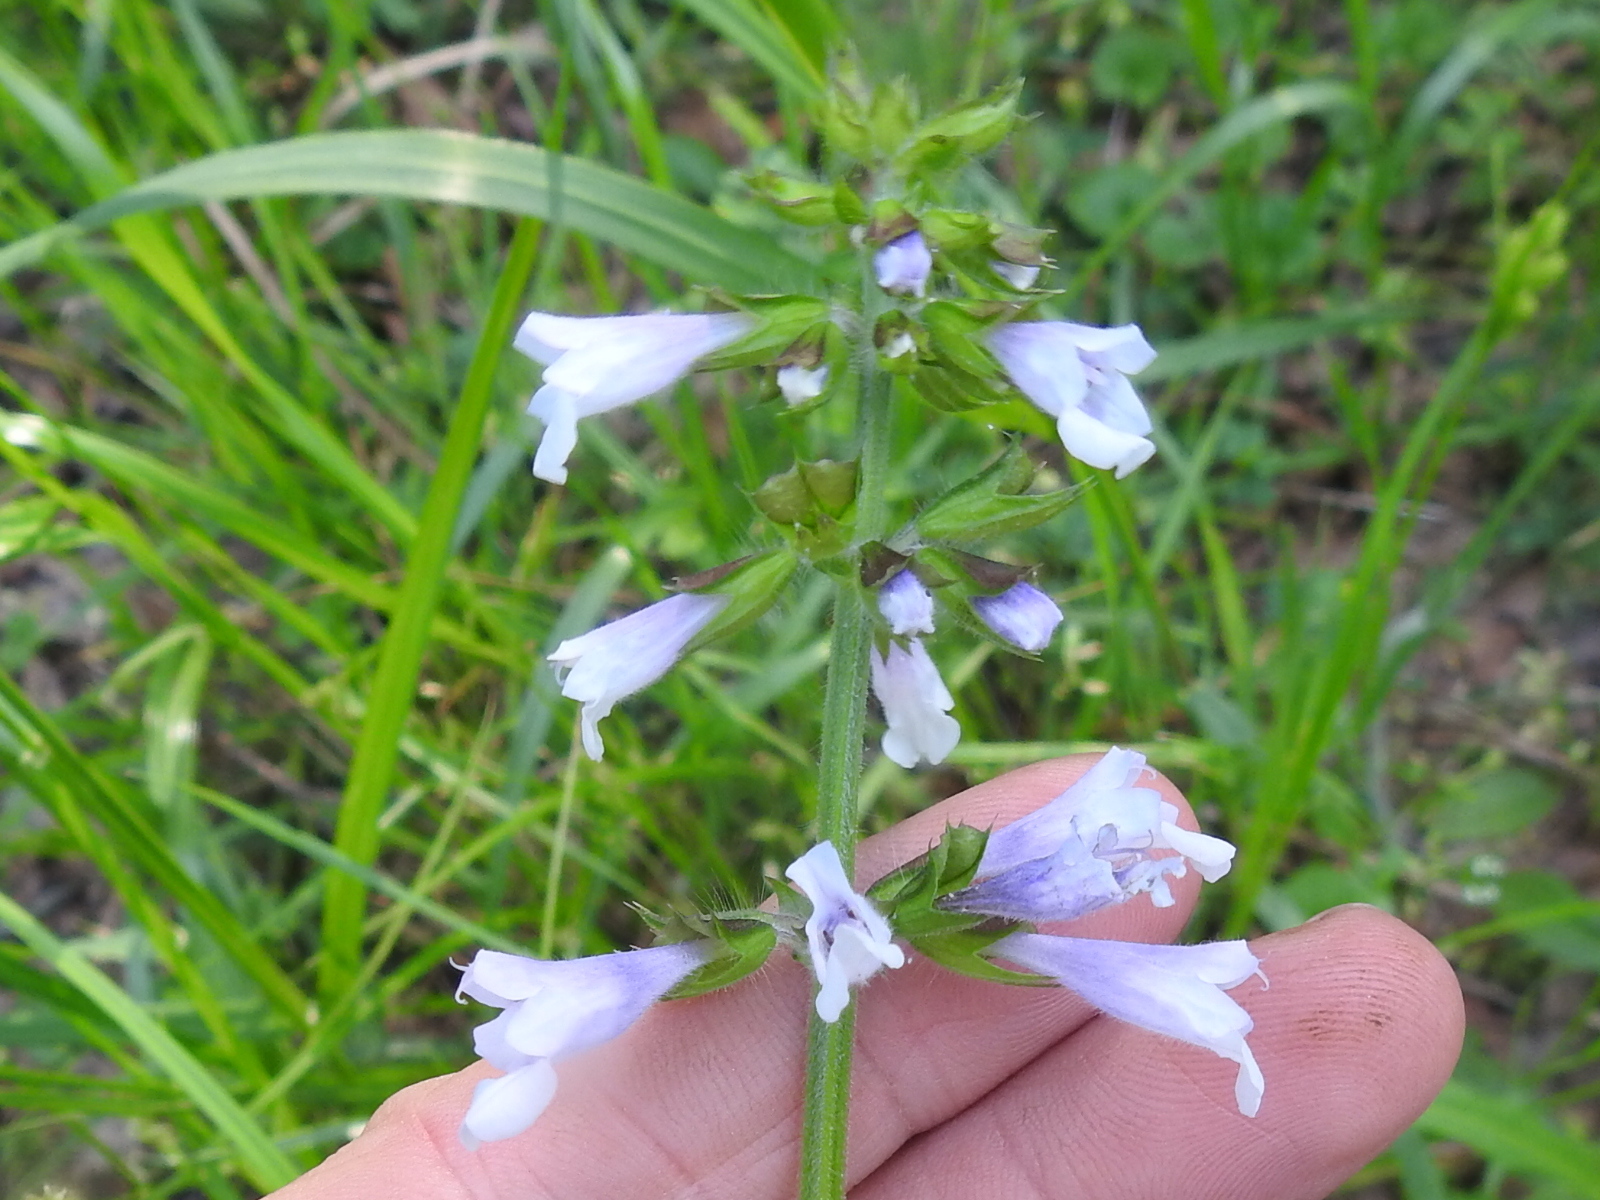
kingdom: Plantae
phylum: Tracheophyta
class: Magnoliopsida
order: Lamiales
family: Lamiaceae
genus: Salvia
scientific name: Salvia lyrata
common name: Cancerweed
